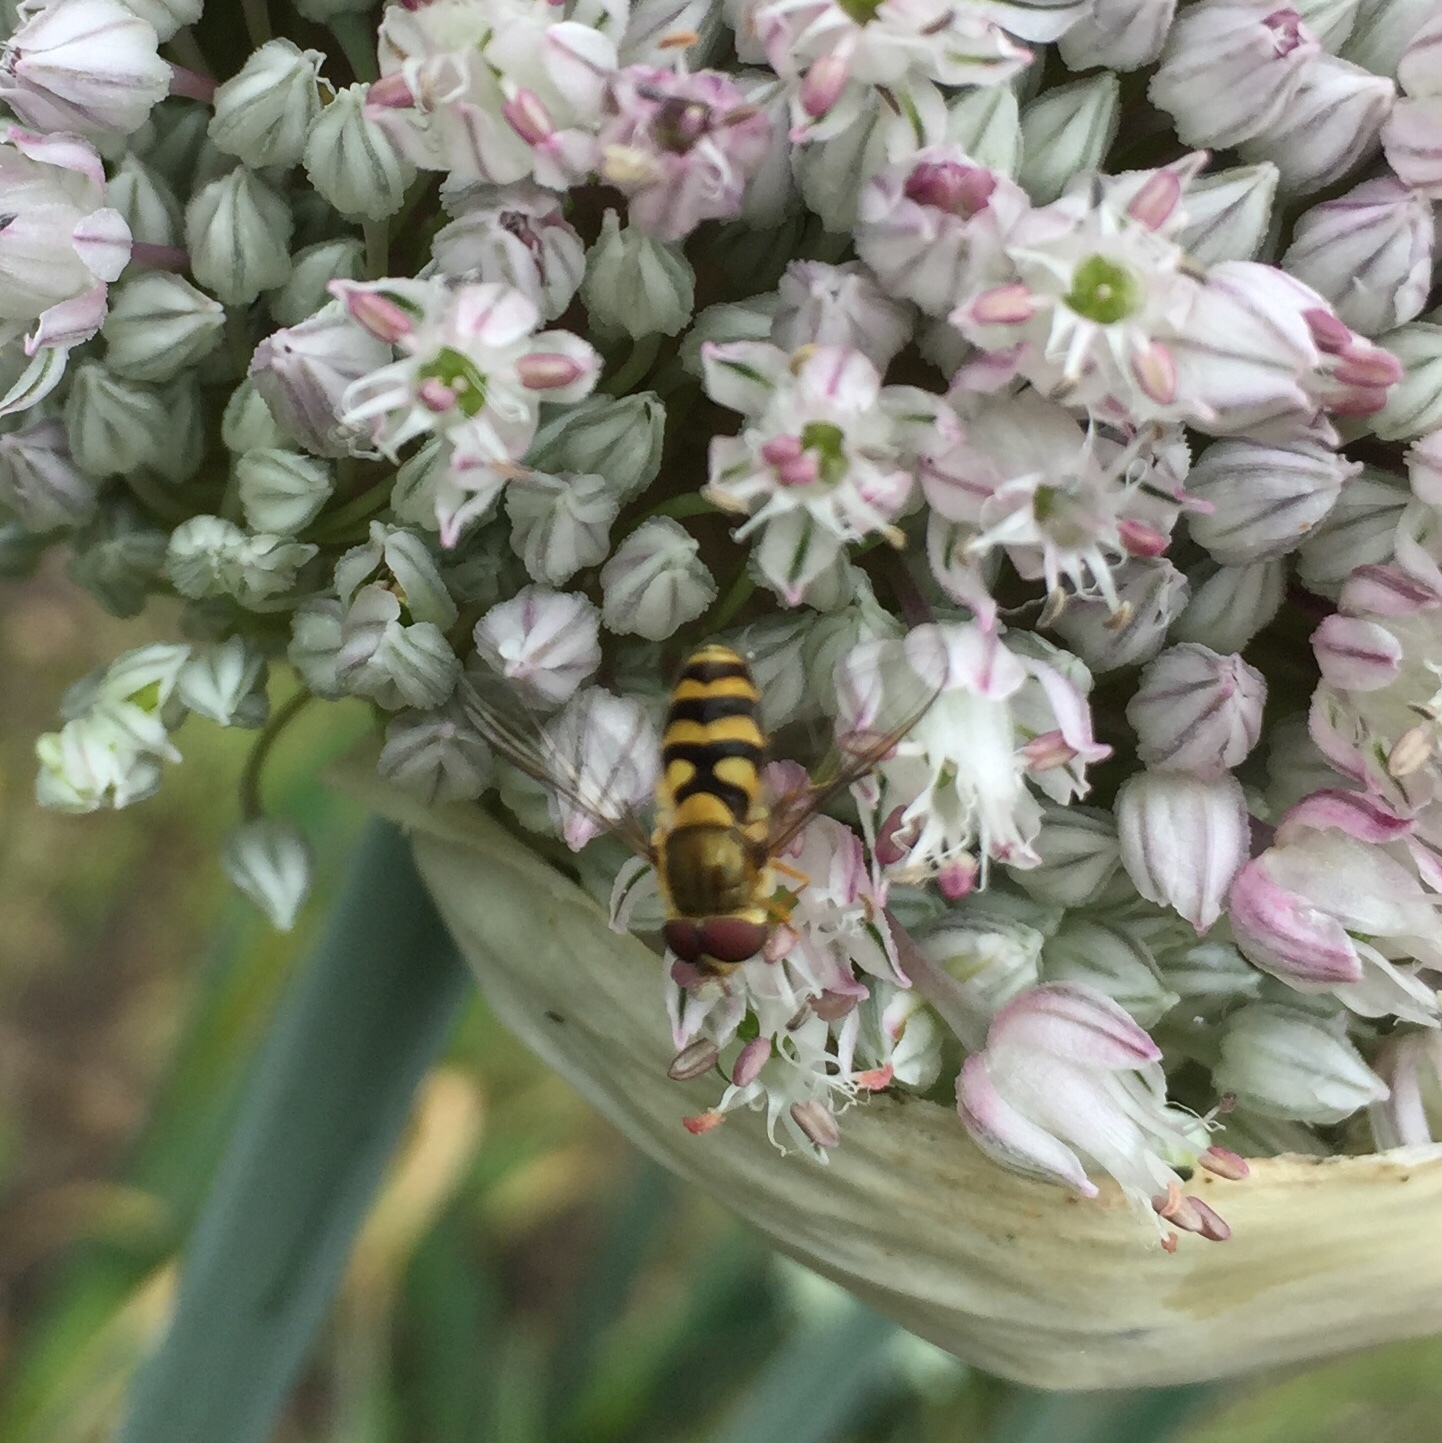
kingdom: Animalia
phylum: Arthropoda
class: Insecta
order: Diptera
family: Syrphidae
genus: Syrphus
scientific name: Syrphus
